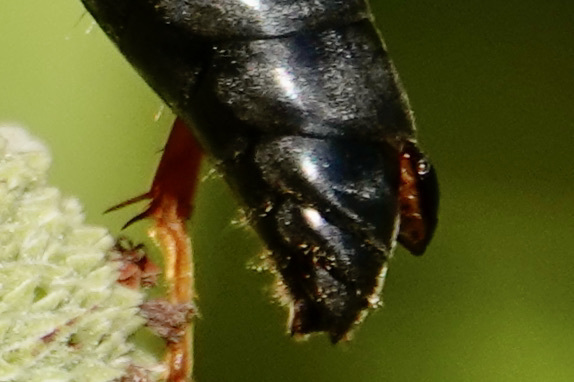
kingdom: Animalia
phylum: Arthropoda
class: Insecta
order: Hymenoptera
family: Sphecidae
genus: Sphex
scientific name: Sphex nudus
